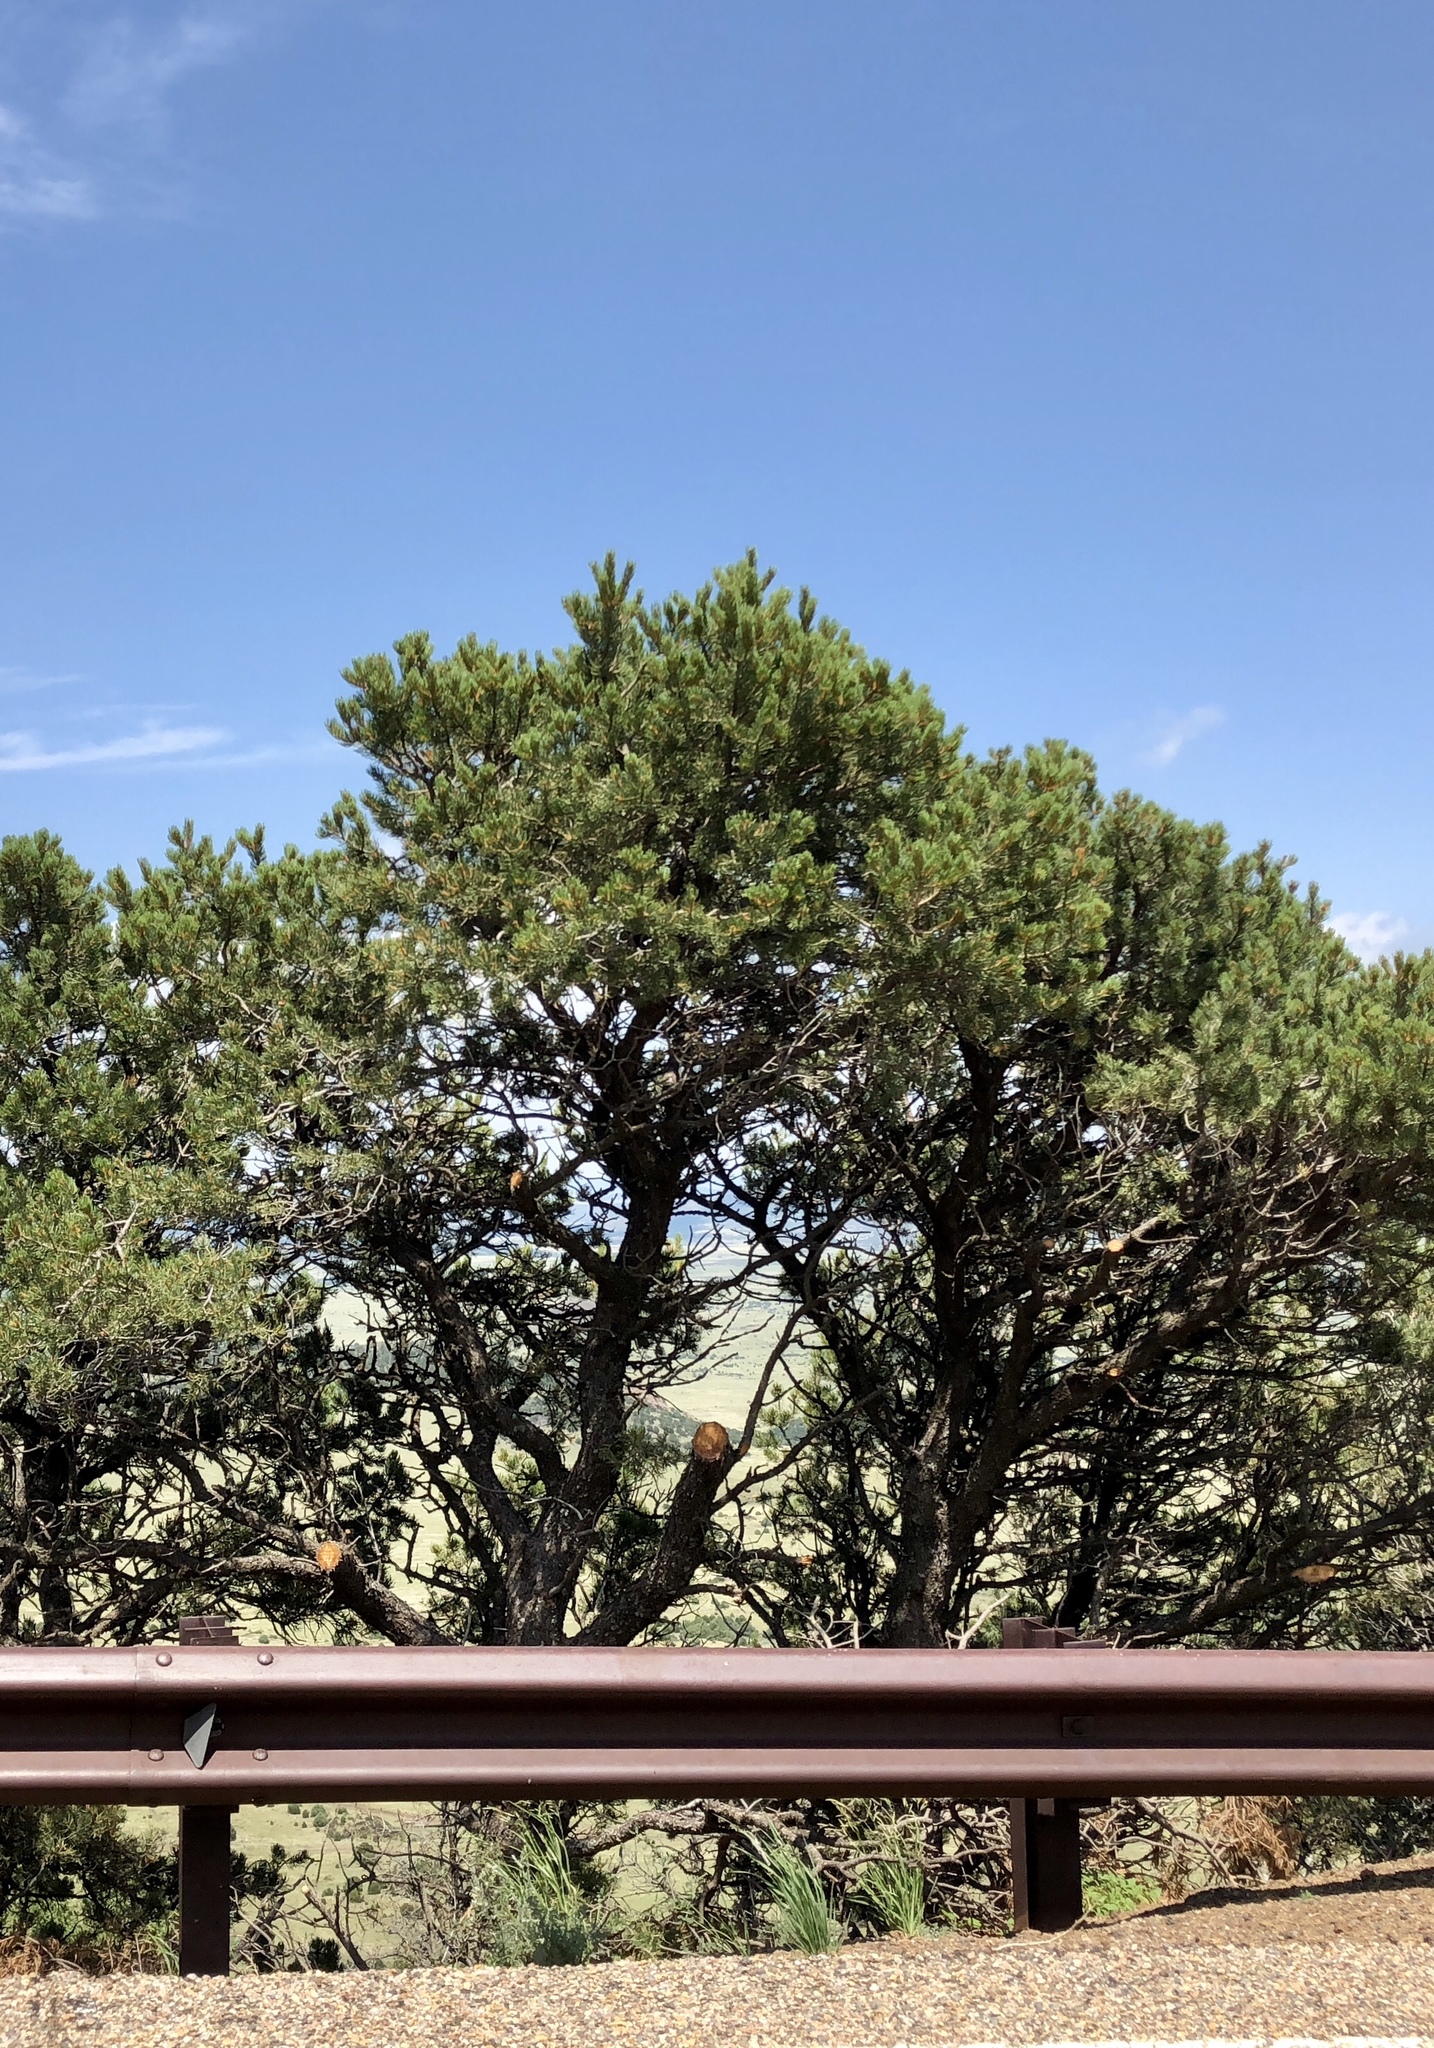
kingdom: Plantae
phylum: Tracheophyta
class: Pinopsida
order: Pinales
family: Pinaceae
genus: Pinus
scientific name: Pinus edulis
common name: Colorado pinyon
